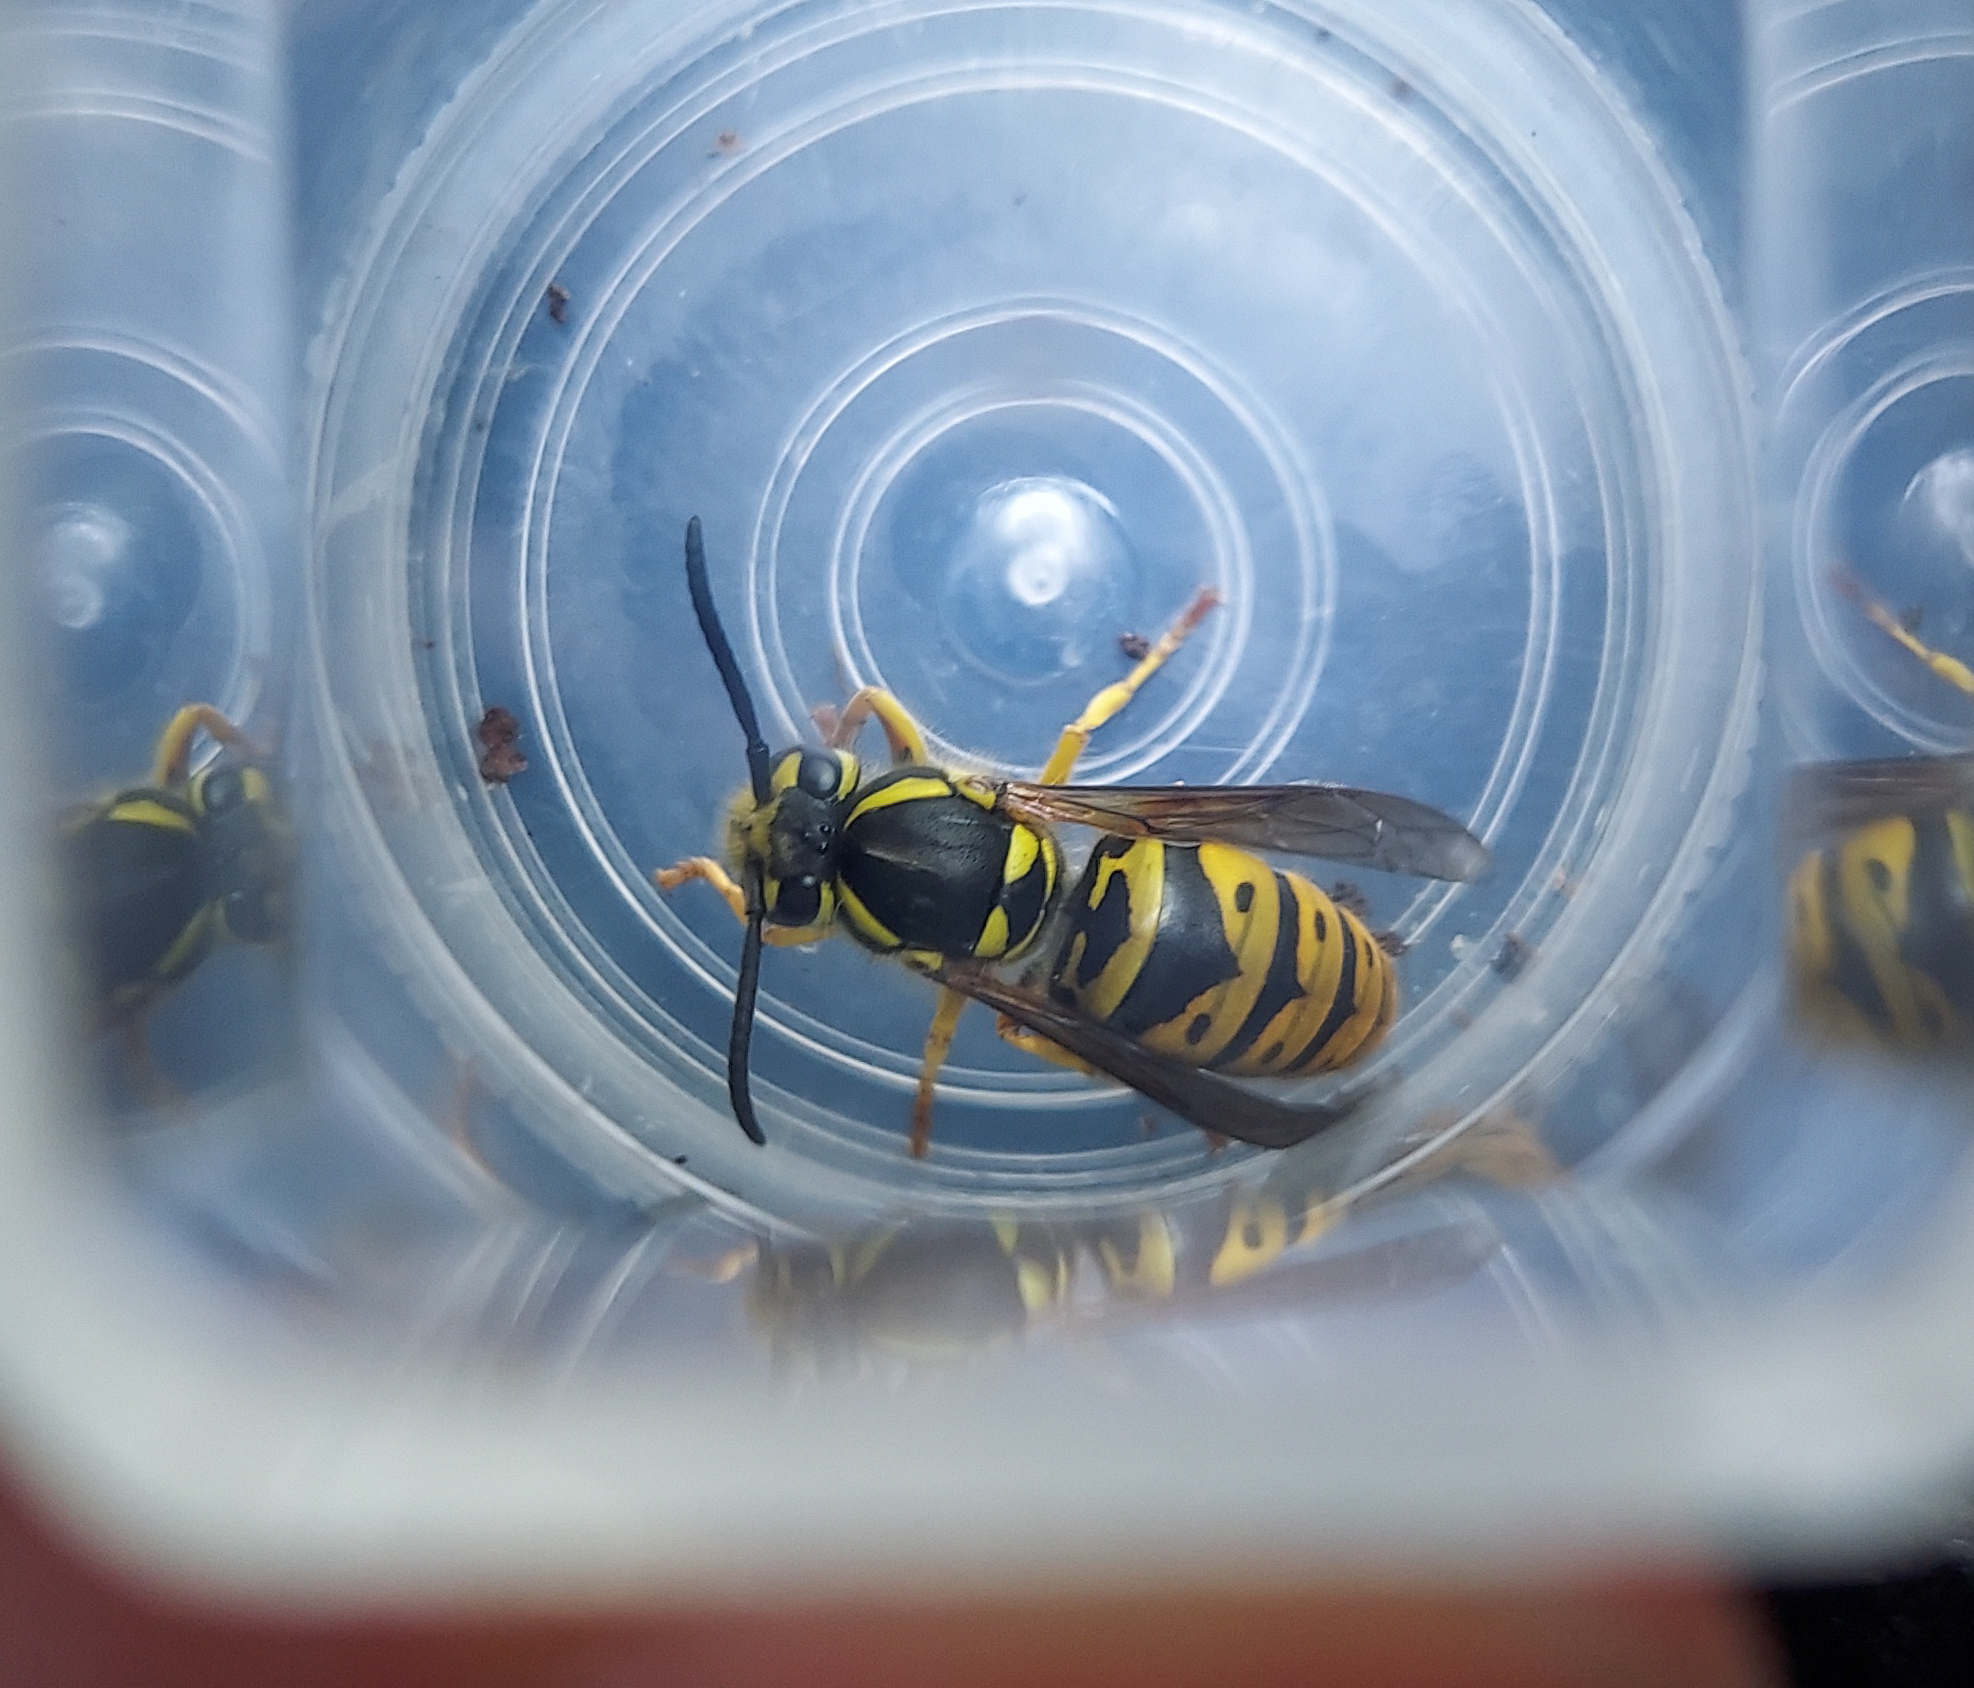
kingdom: Animalia
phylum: Arthropoda
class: Insecta
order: Hymenoptera
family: Vespidae
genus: Vespula
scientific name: Vespula maculifrons
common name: Eastern yellowjacket
